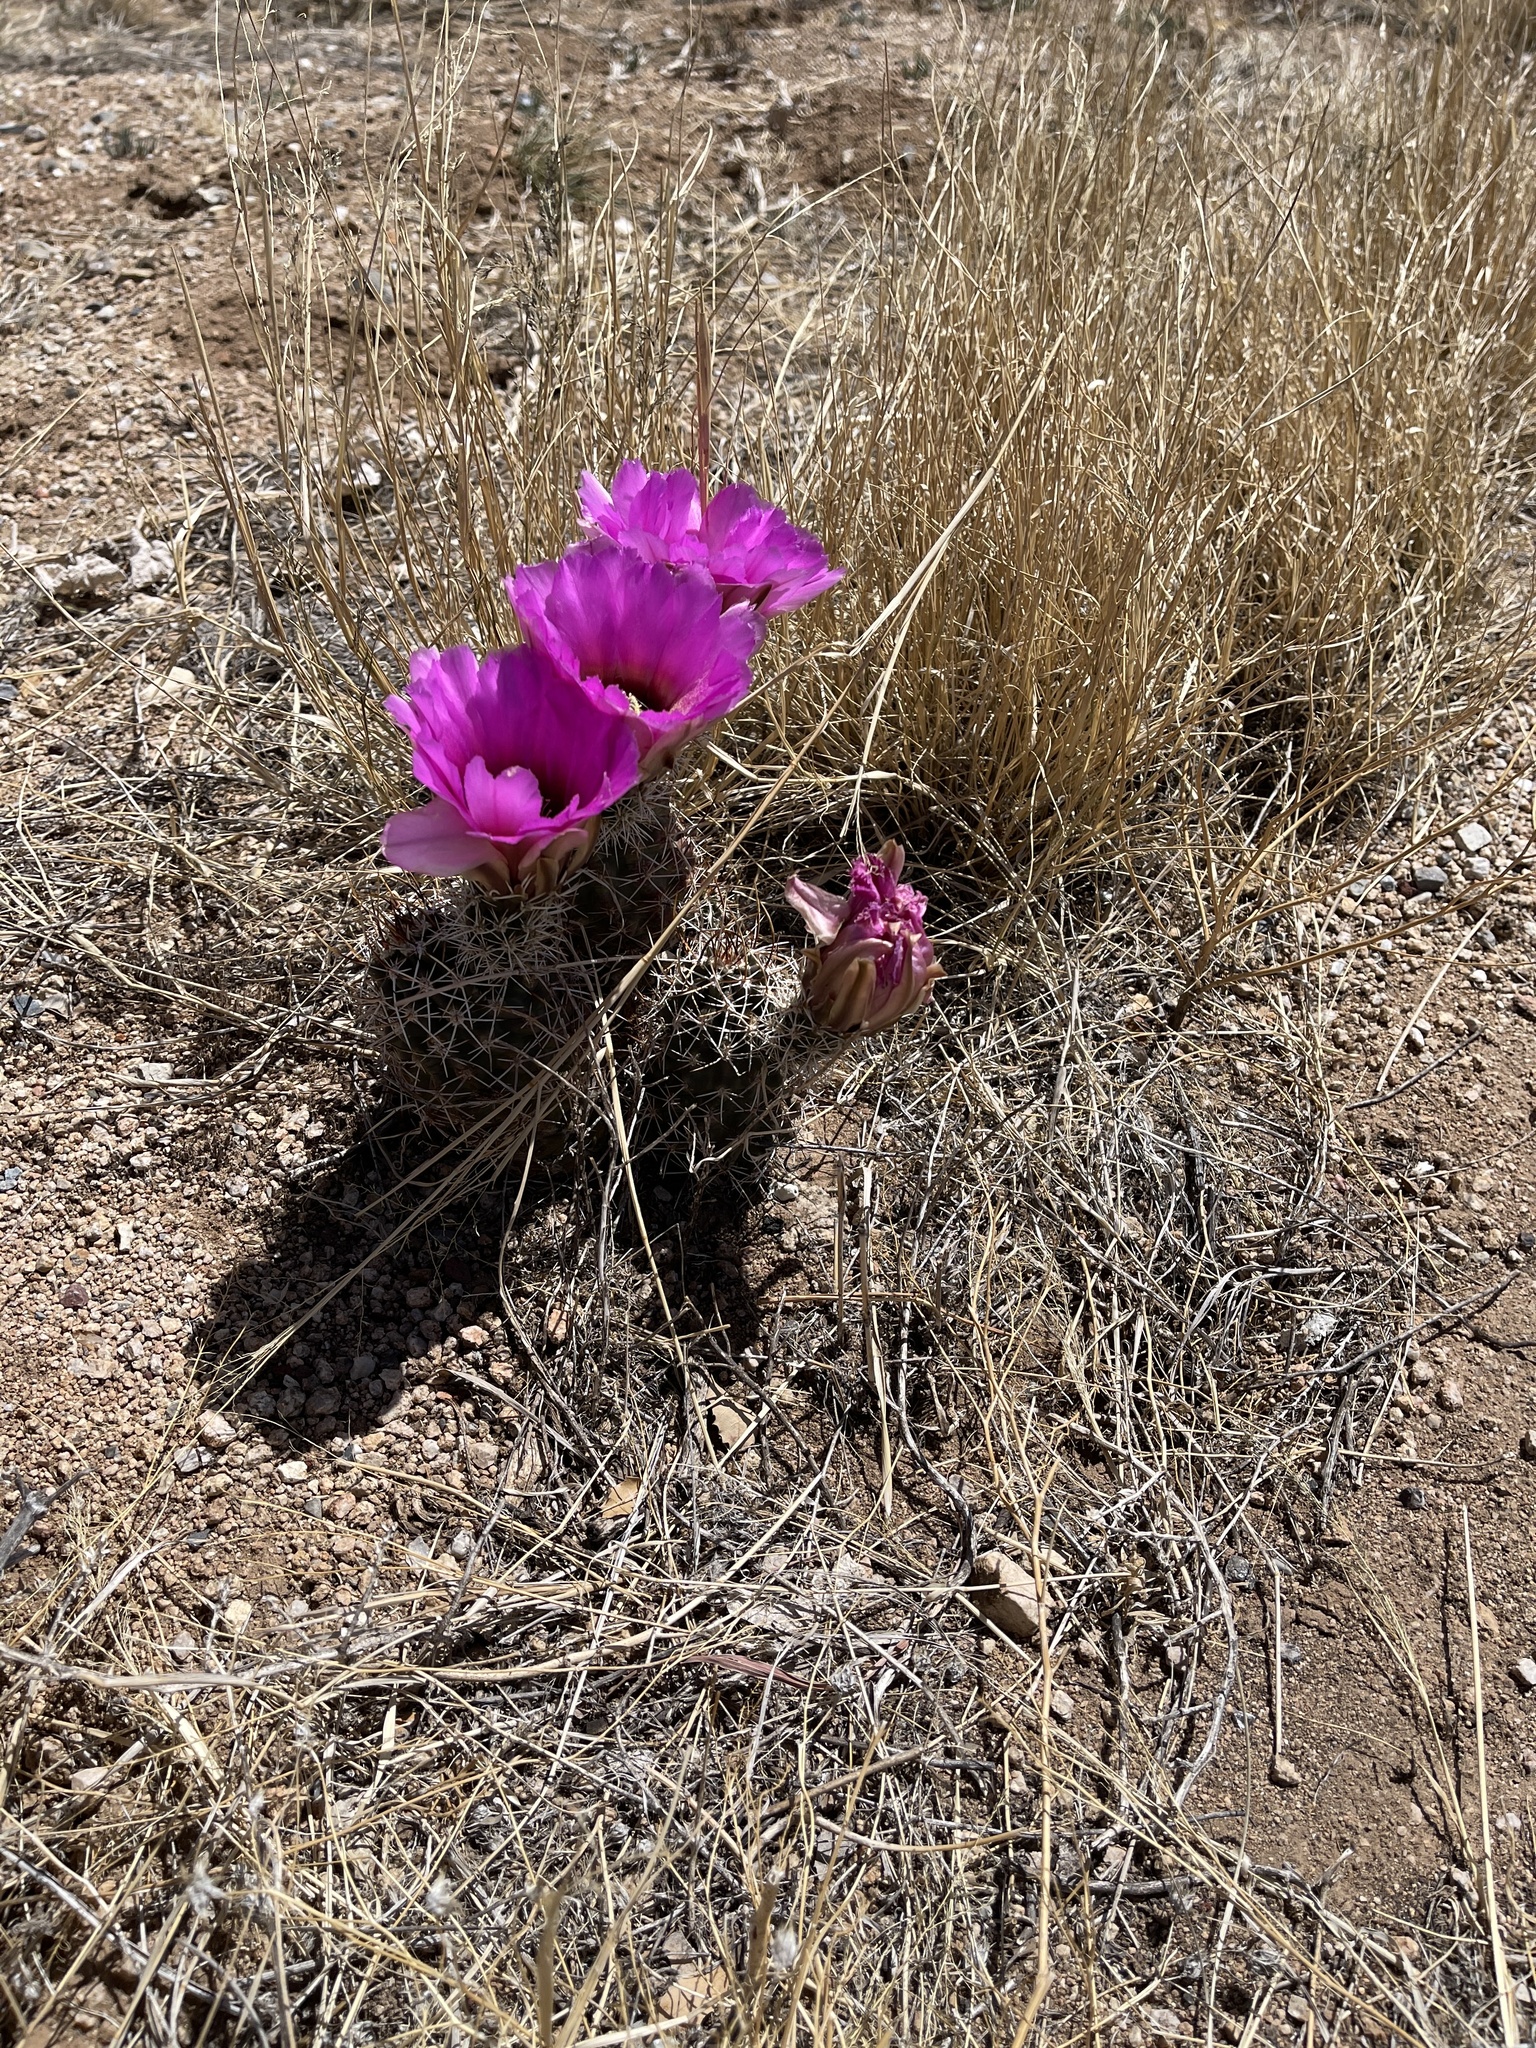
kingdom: Plantae
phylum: Tracheophyta
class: Magnoliopsida
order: Caryophyllales
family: Cactaceae
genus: Echinocereus
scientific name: Echinocereus fendleri
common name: Fendler's hedgehog cactus
